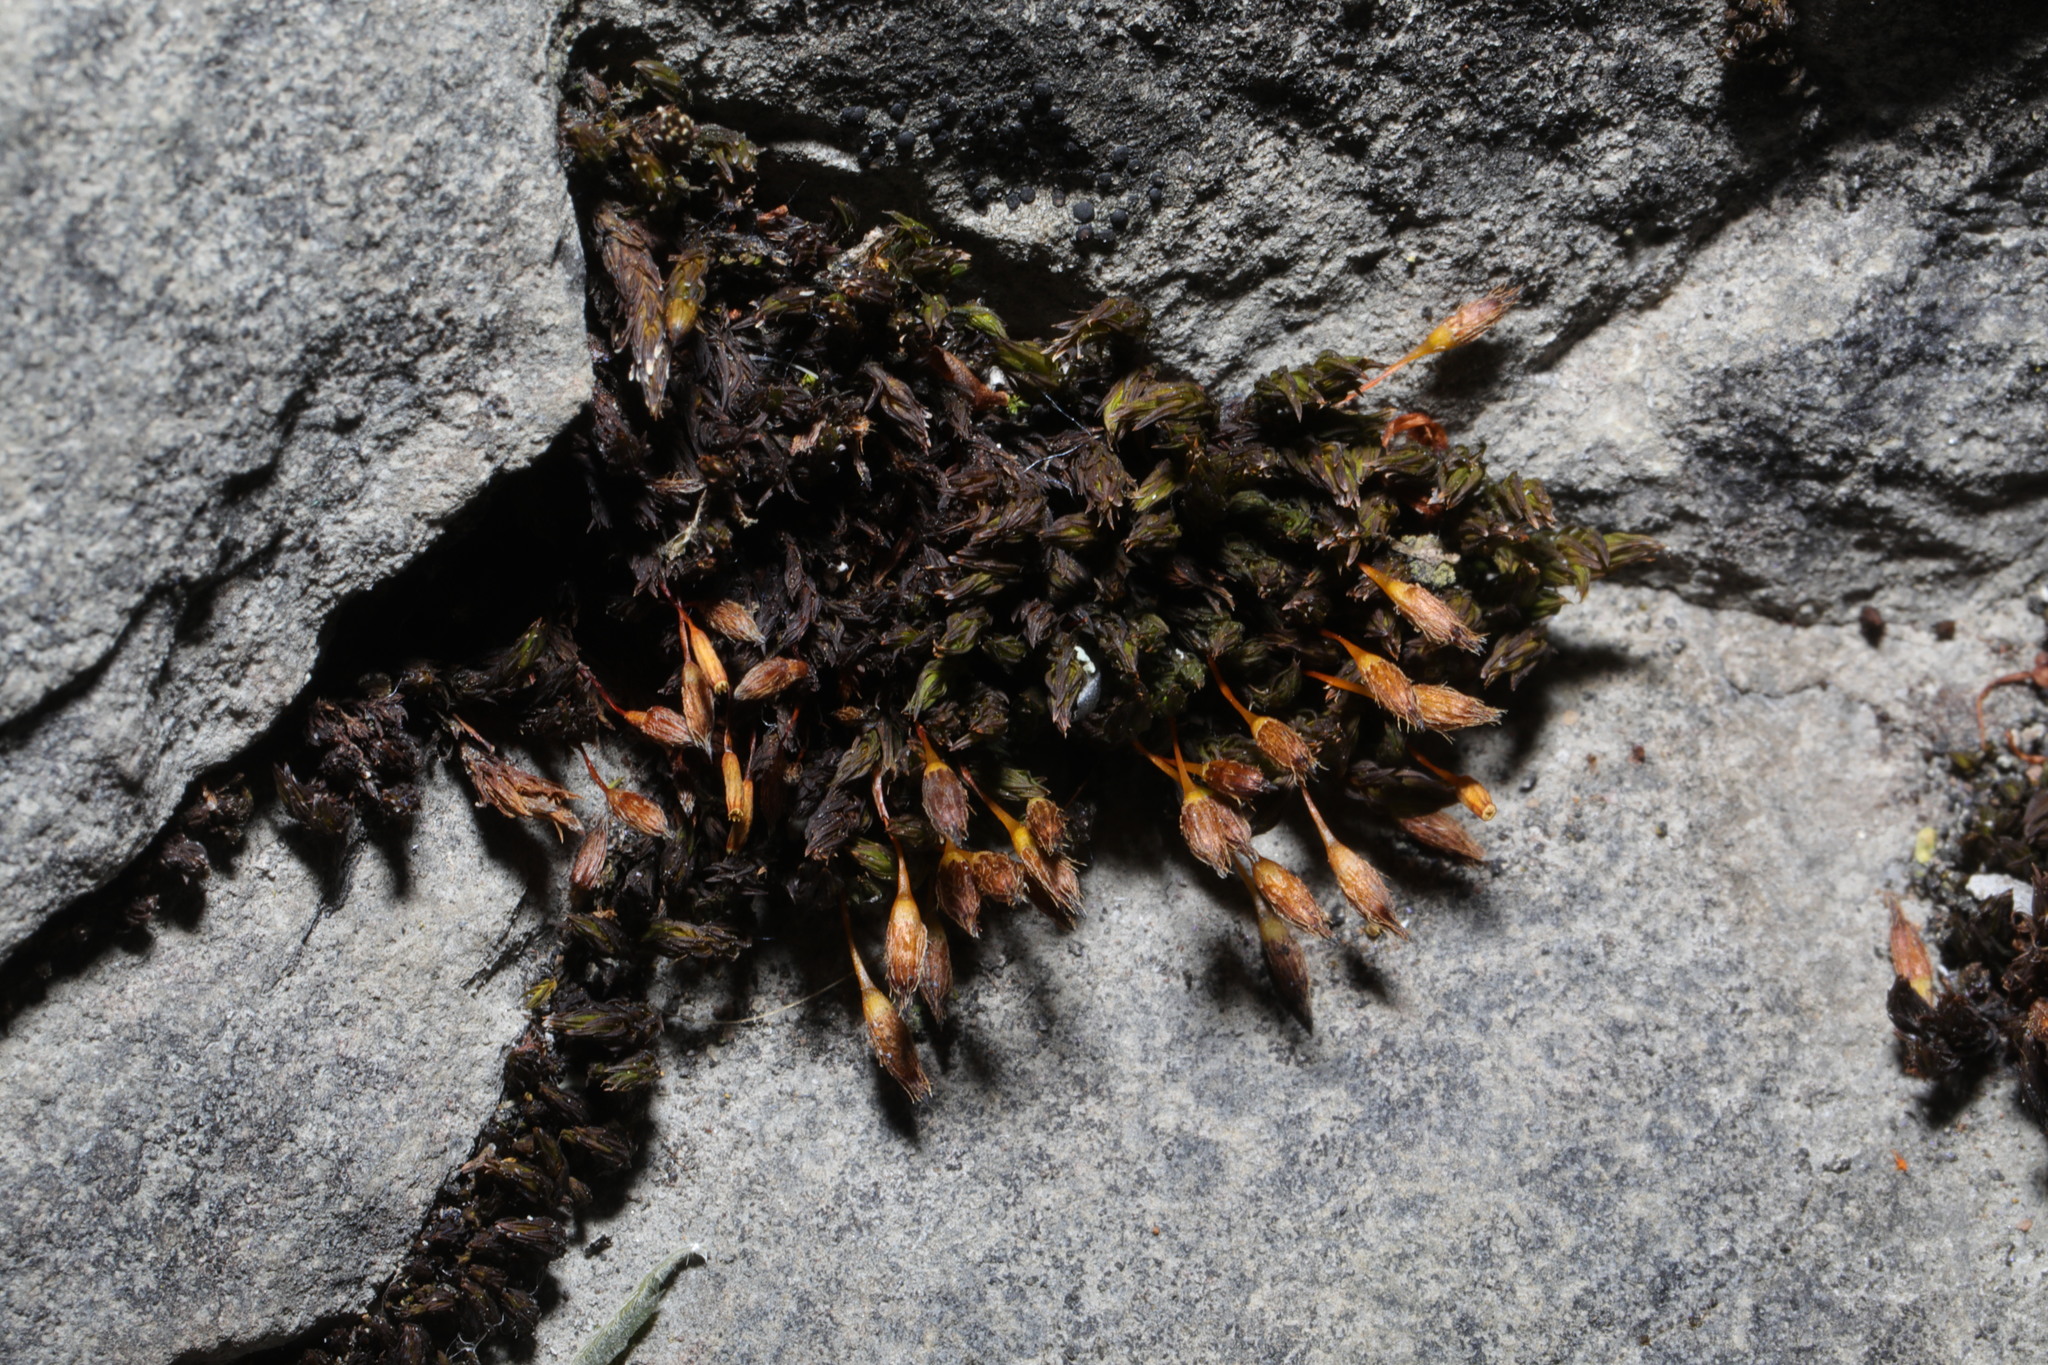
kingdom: Plantae
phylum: Bryophyta
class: Bryopsida
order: Orthotrichales
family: Orthotrichaceae
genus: Orthotrichum
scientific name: Orthotrichum anomalum
